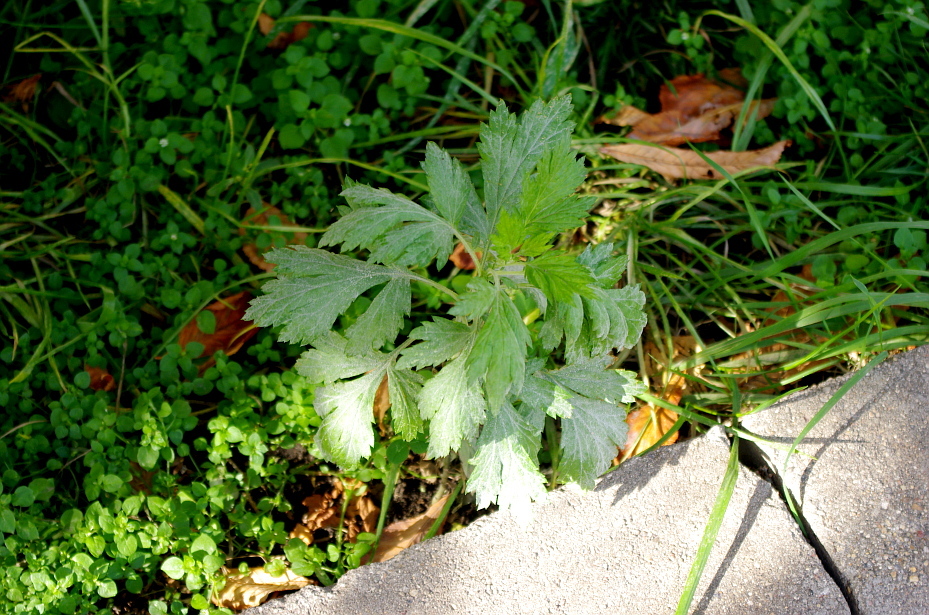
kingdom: Plantae
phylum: Tracheophyta
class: Magnoliopsida
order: Asterales
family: Asteraceae
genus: Artemisia
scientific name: Artemisia vulgaris
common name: Mugwort
